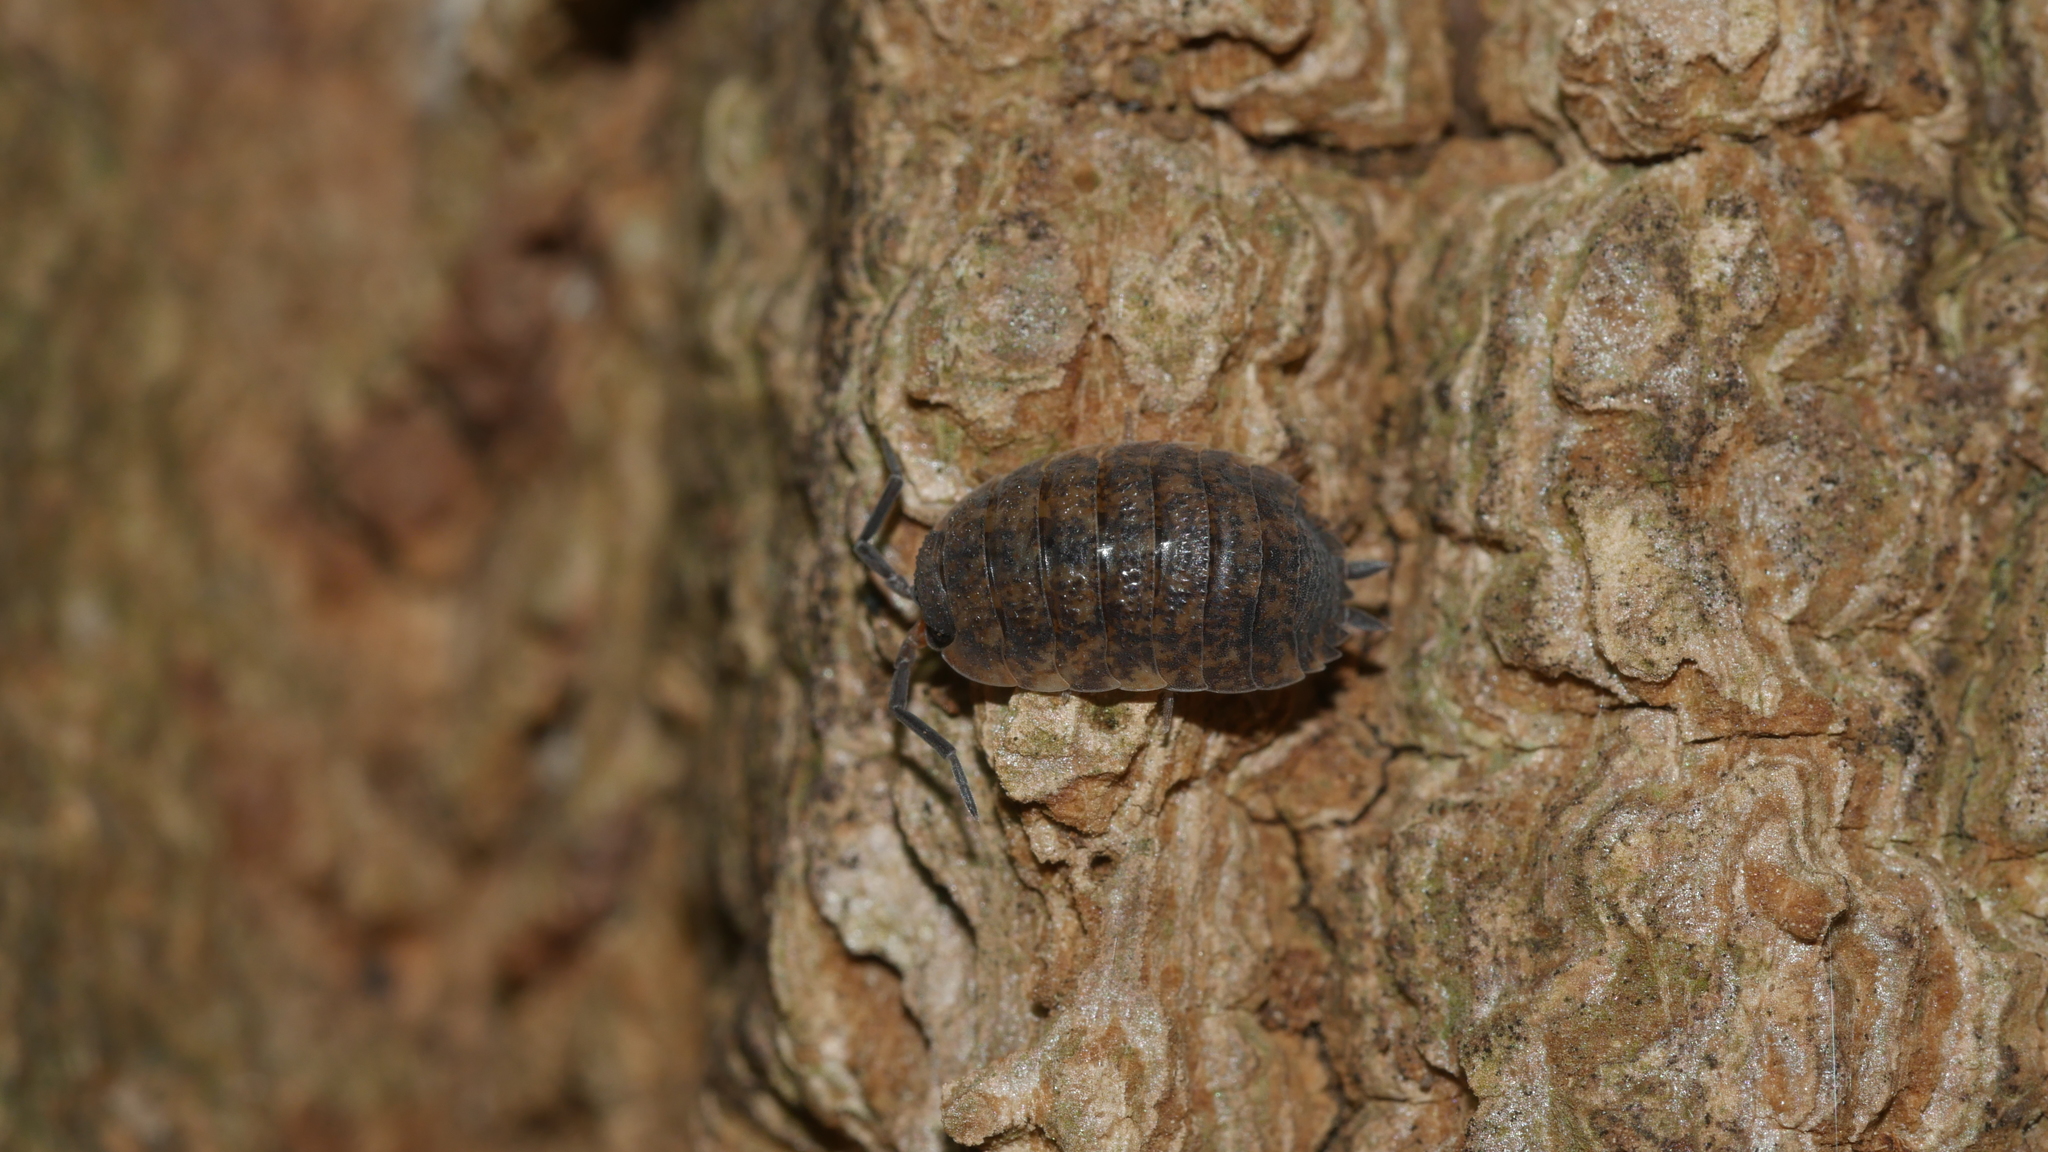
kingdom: Animalia
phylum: Arthropoda
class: Malacostraca
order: Isopoda
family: Porcellionidae
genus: Porcellio
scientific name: Porcellio scaber
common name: Common rough woodlouse
